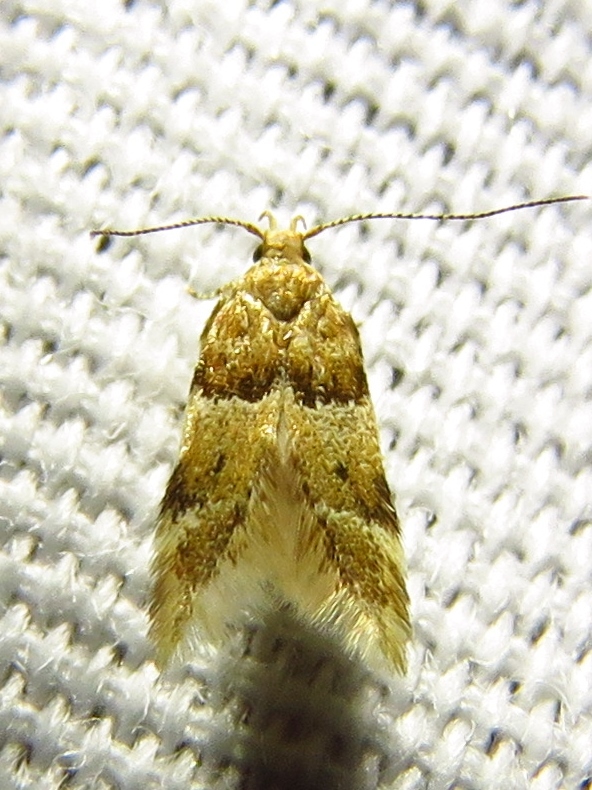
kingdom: Animalia
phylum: Arthropoda
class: Insecta
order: Lepidoptera
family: Gelechiidae
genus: Theisoa
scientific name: Theisoa constrictella
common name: Constricted twirler
